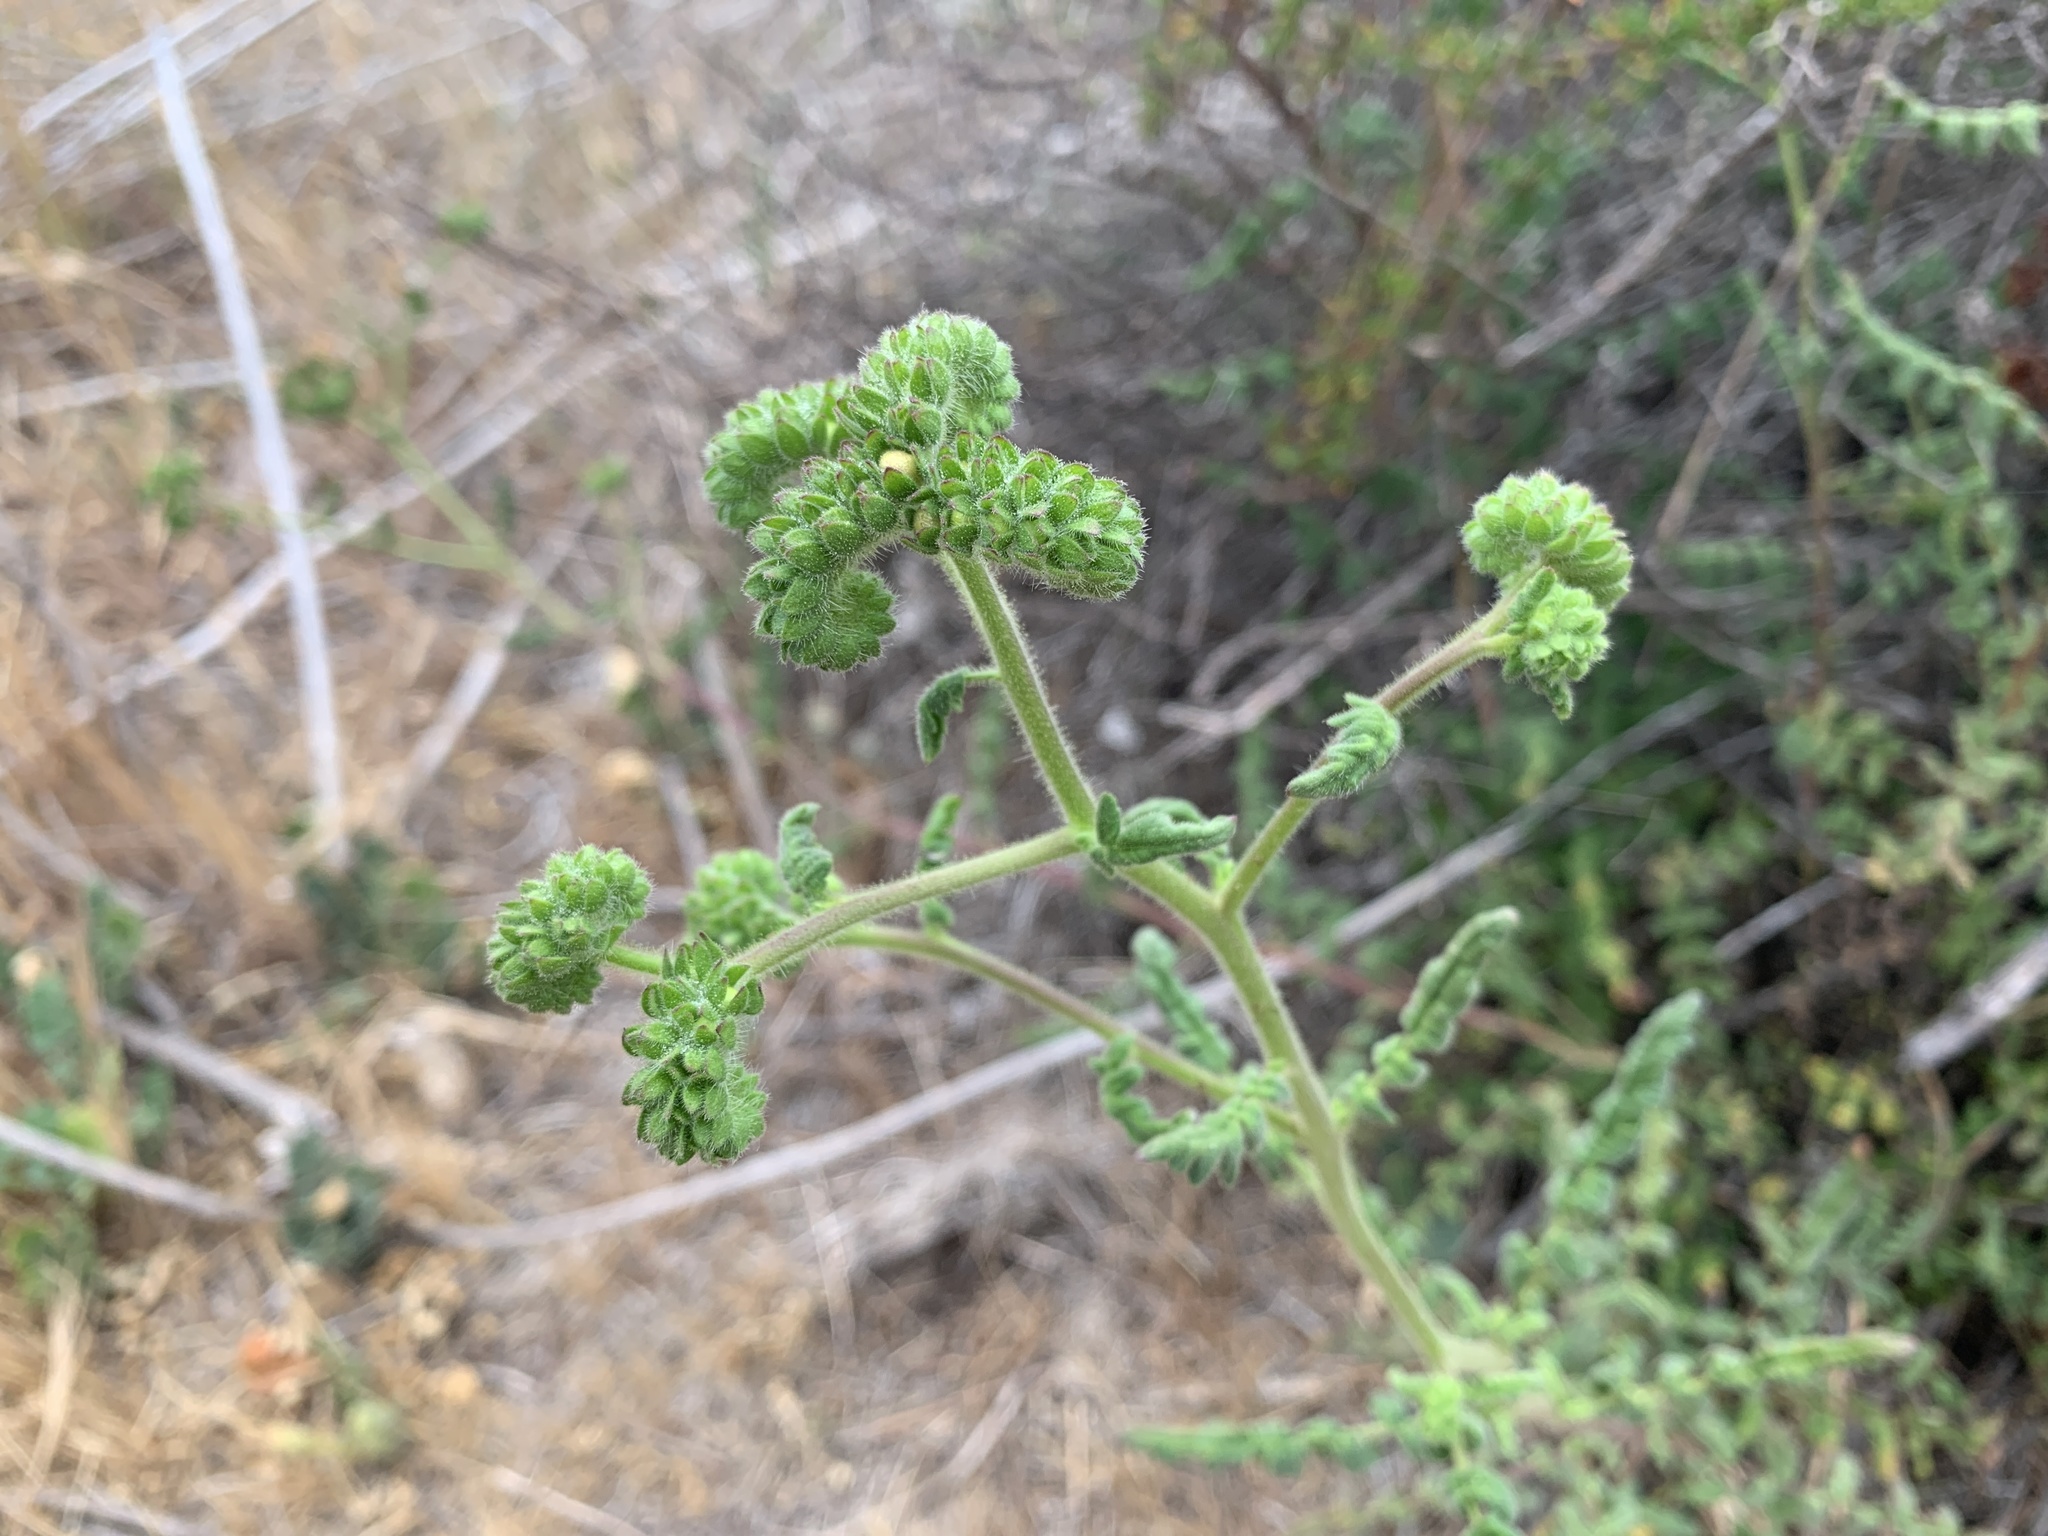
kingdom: Plantae
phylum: Tracheophyta
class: Magnoliopsida
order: Boraginales
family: Hydrophyllaceae
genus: Phacelia
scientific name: Phacelia ramosissima
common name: Branching phacelia
